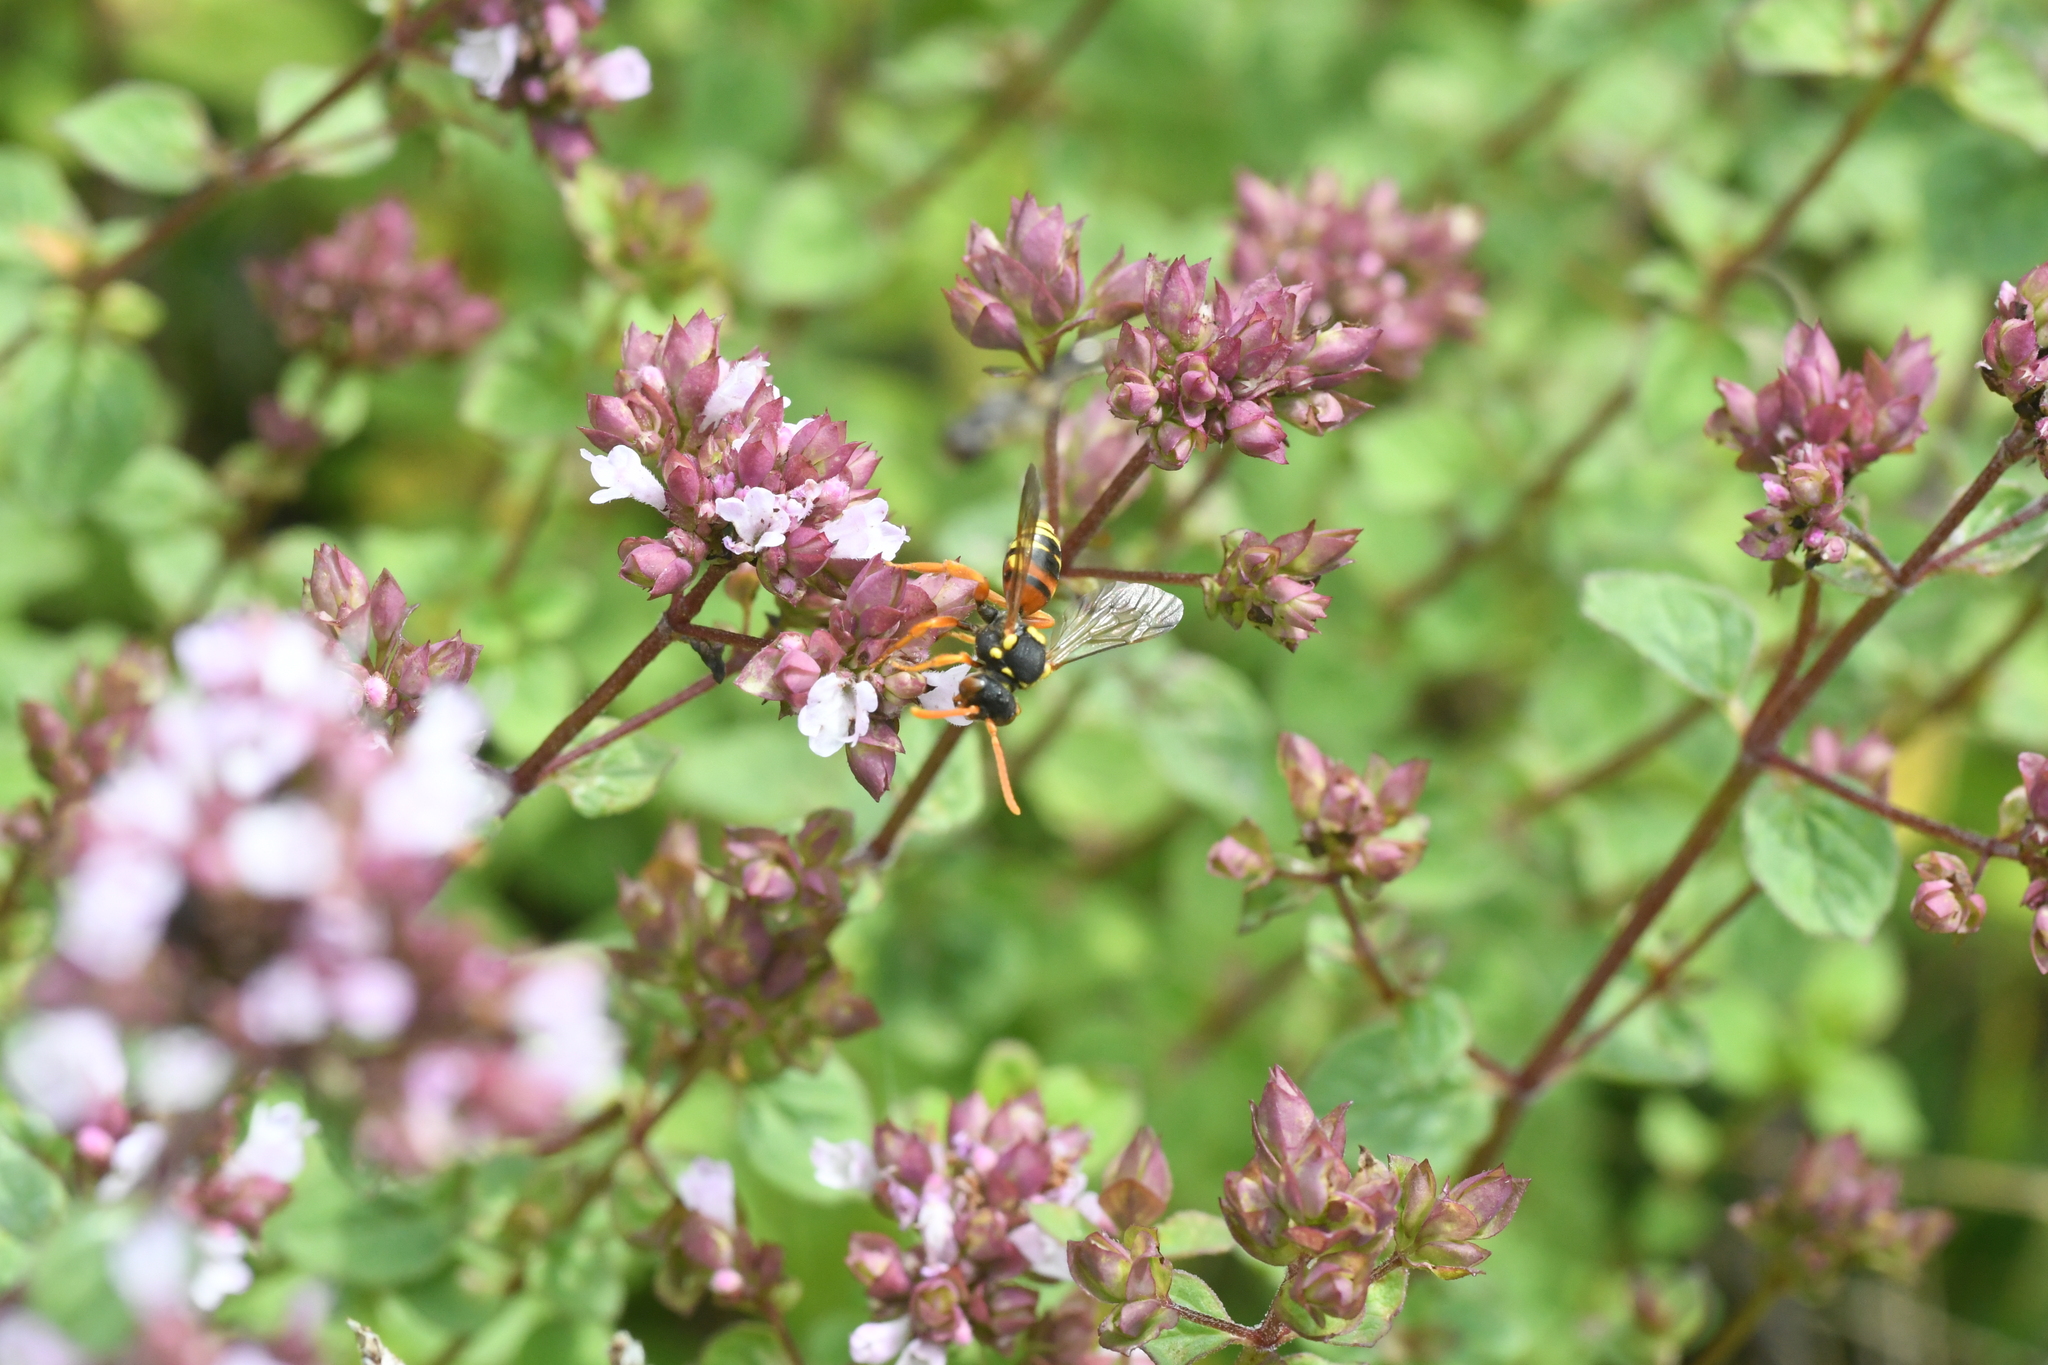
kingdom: Animalia
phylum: Arthropoda
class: Insecta
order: Hymenoptera
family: Apidae
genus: Nomada
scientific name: Nomada fucata
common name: Painted nomad bee
